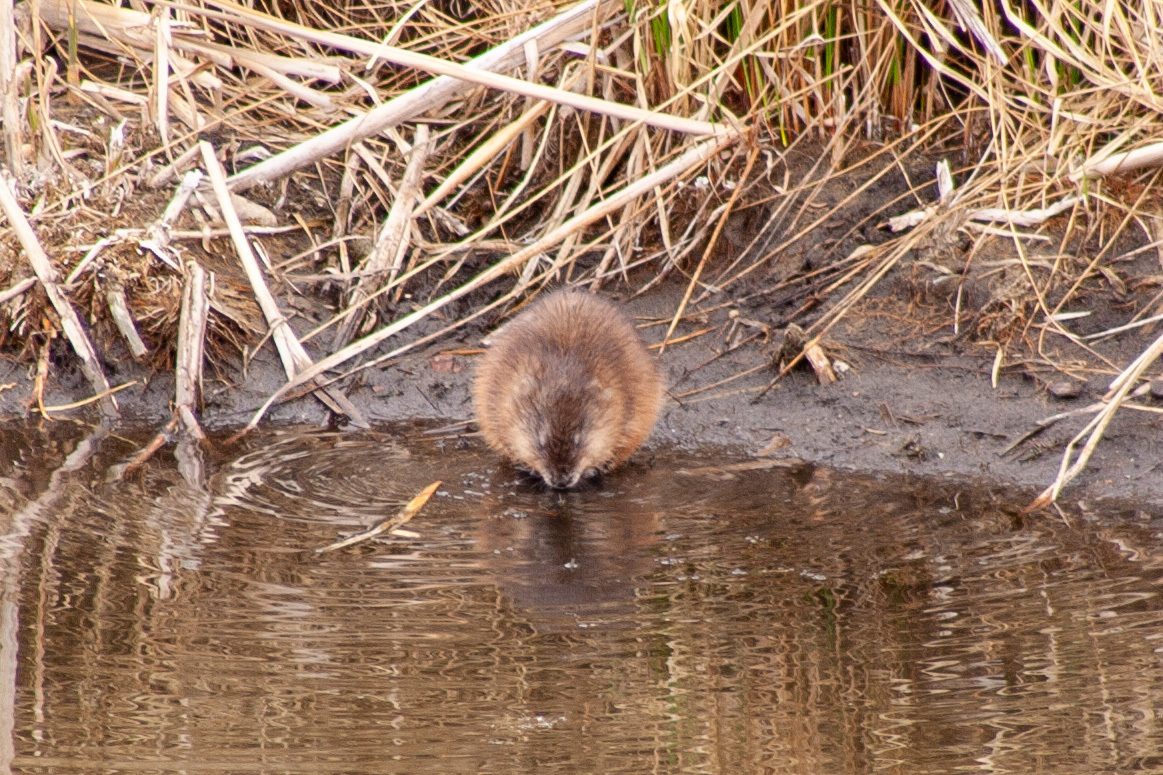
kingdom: Animalia
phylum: Chordata
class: Mammalia
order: Rodentia
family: Cricetidae
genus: Ondatra
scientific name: Ondatra zibethicus
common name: Muskrat
